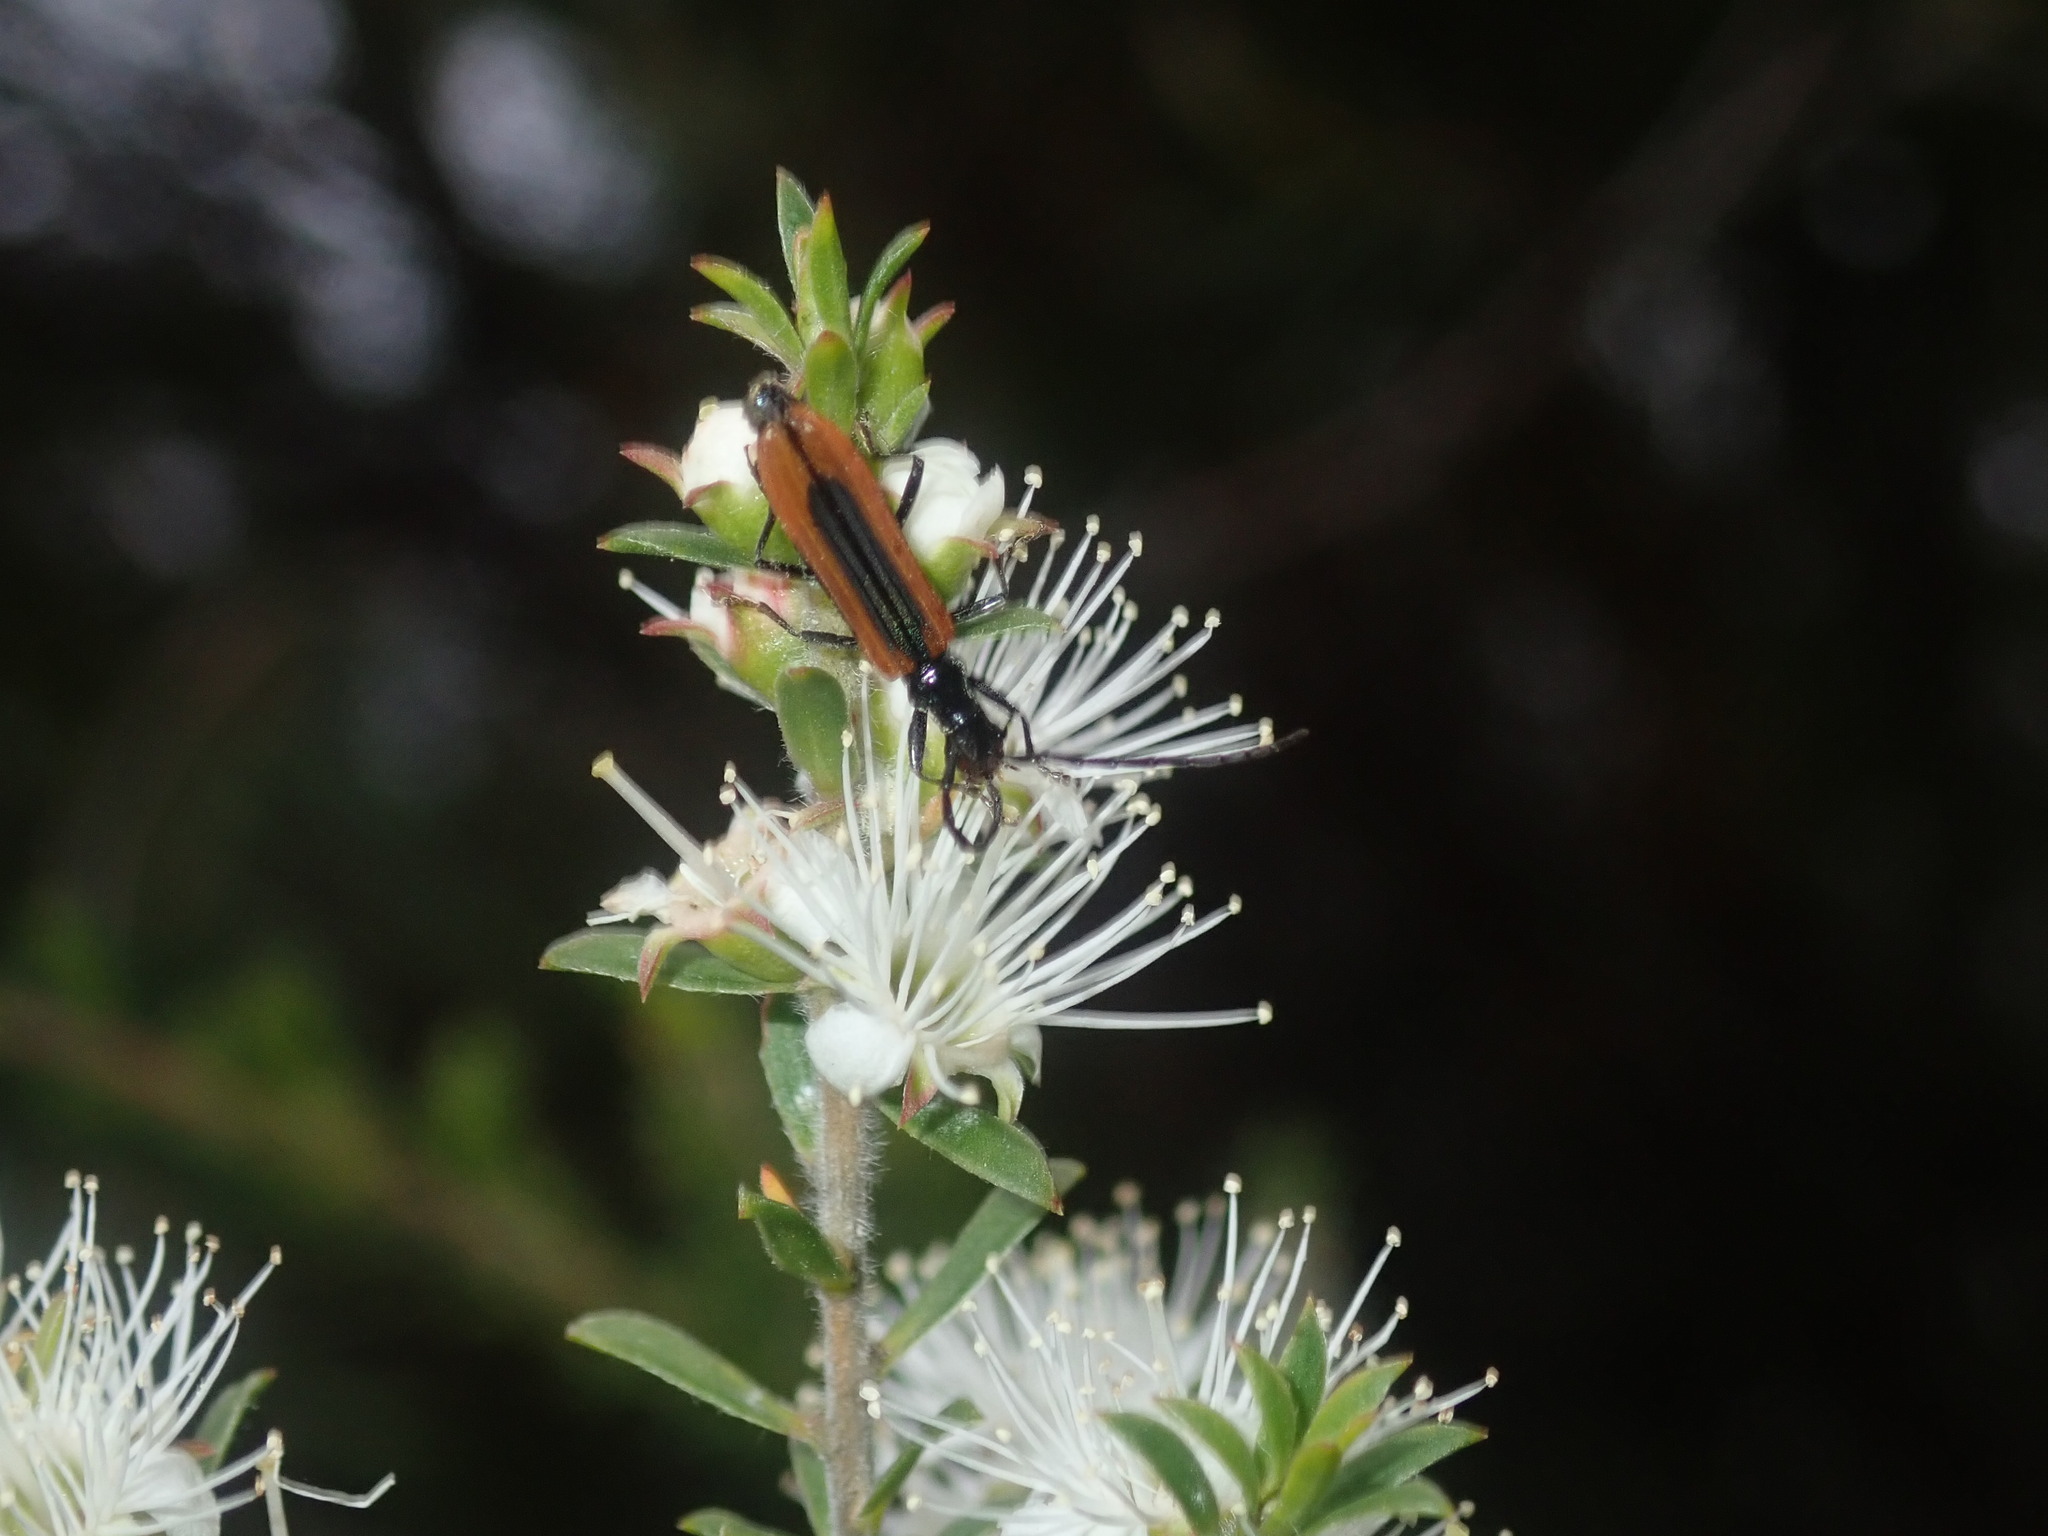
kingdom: Animalia
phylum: Arthropoda
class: Insecta
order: Coleoptera
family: Cerambycidae
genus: Stenoderus
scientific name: Stenoderus suturalis
